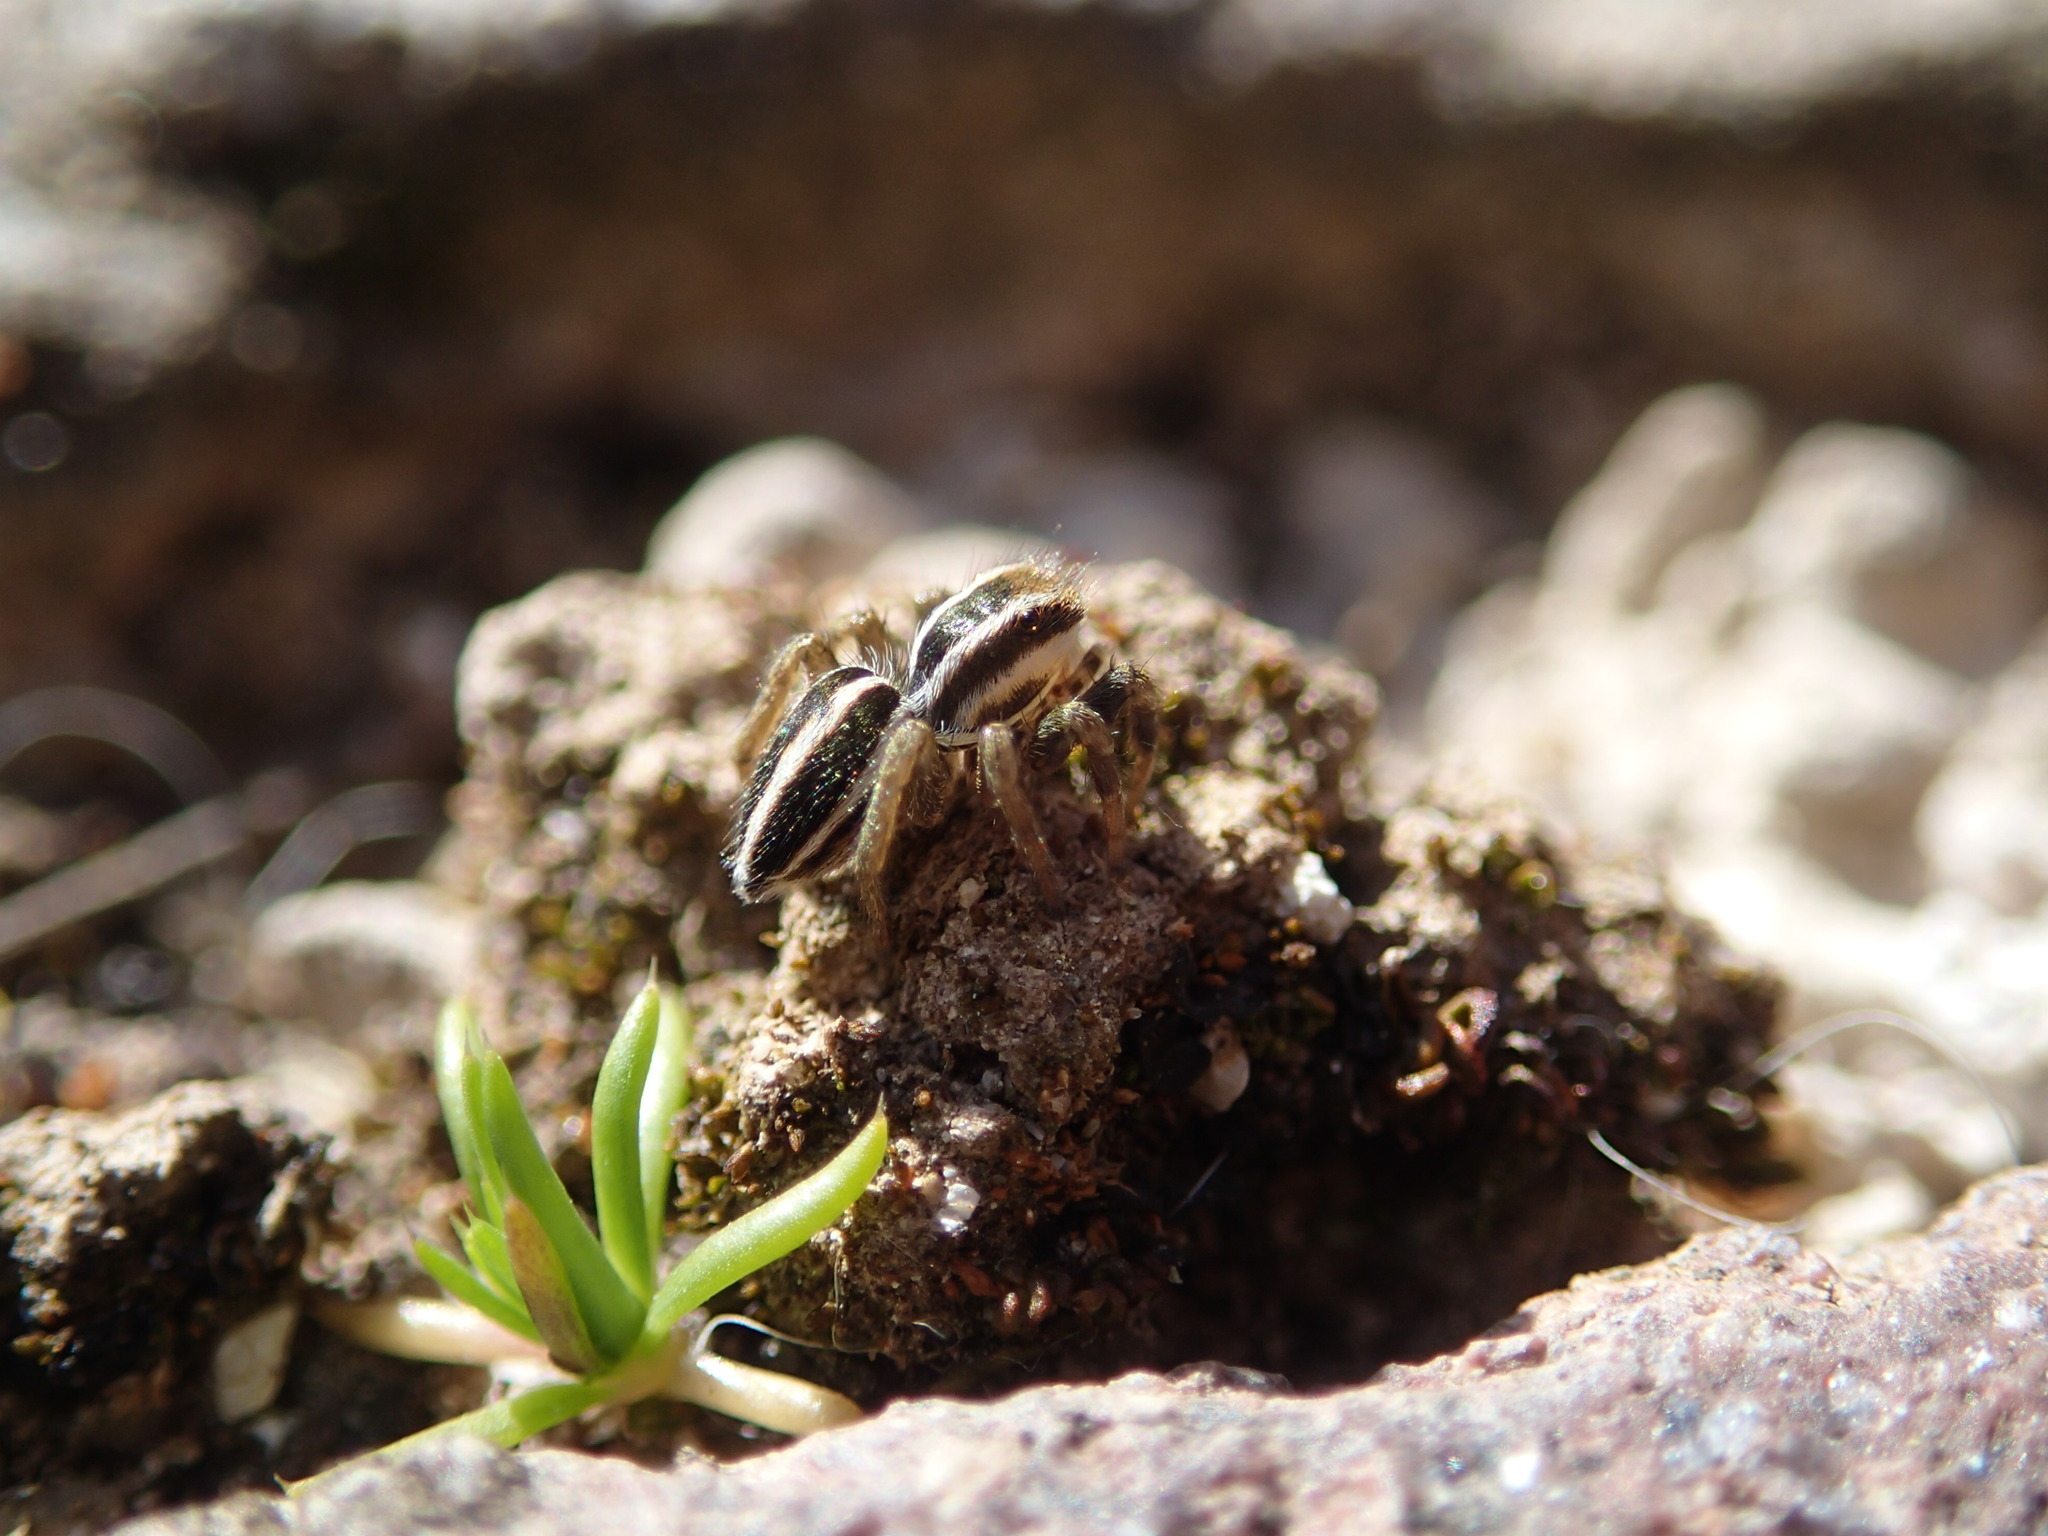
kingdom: Animalia
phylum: Arthropoda
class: Arachnida
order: Araneae
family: Salticidae
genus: Phlegra
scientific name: Phlegra bresnieri
